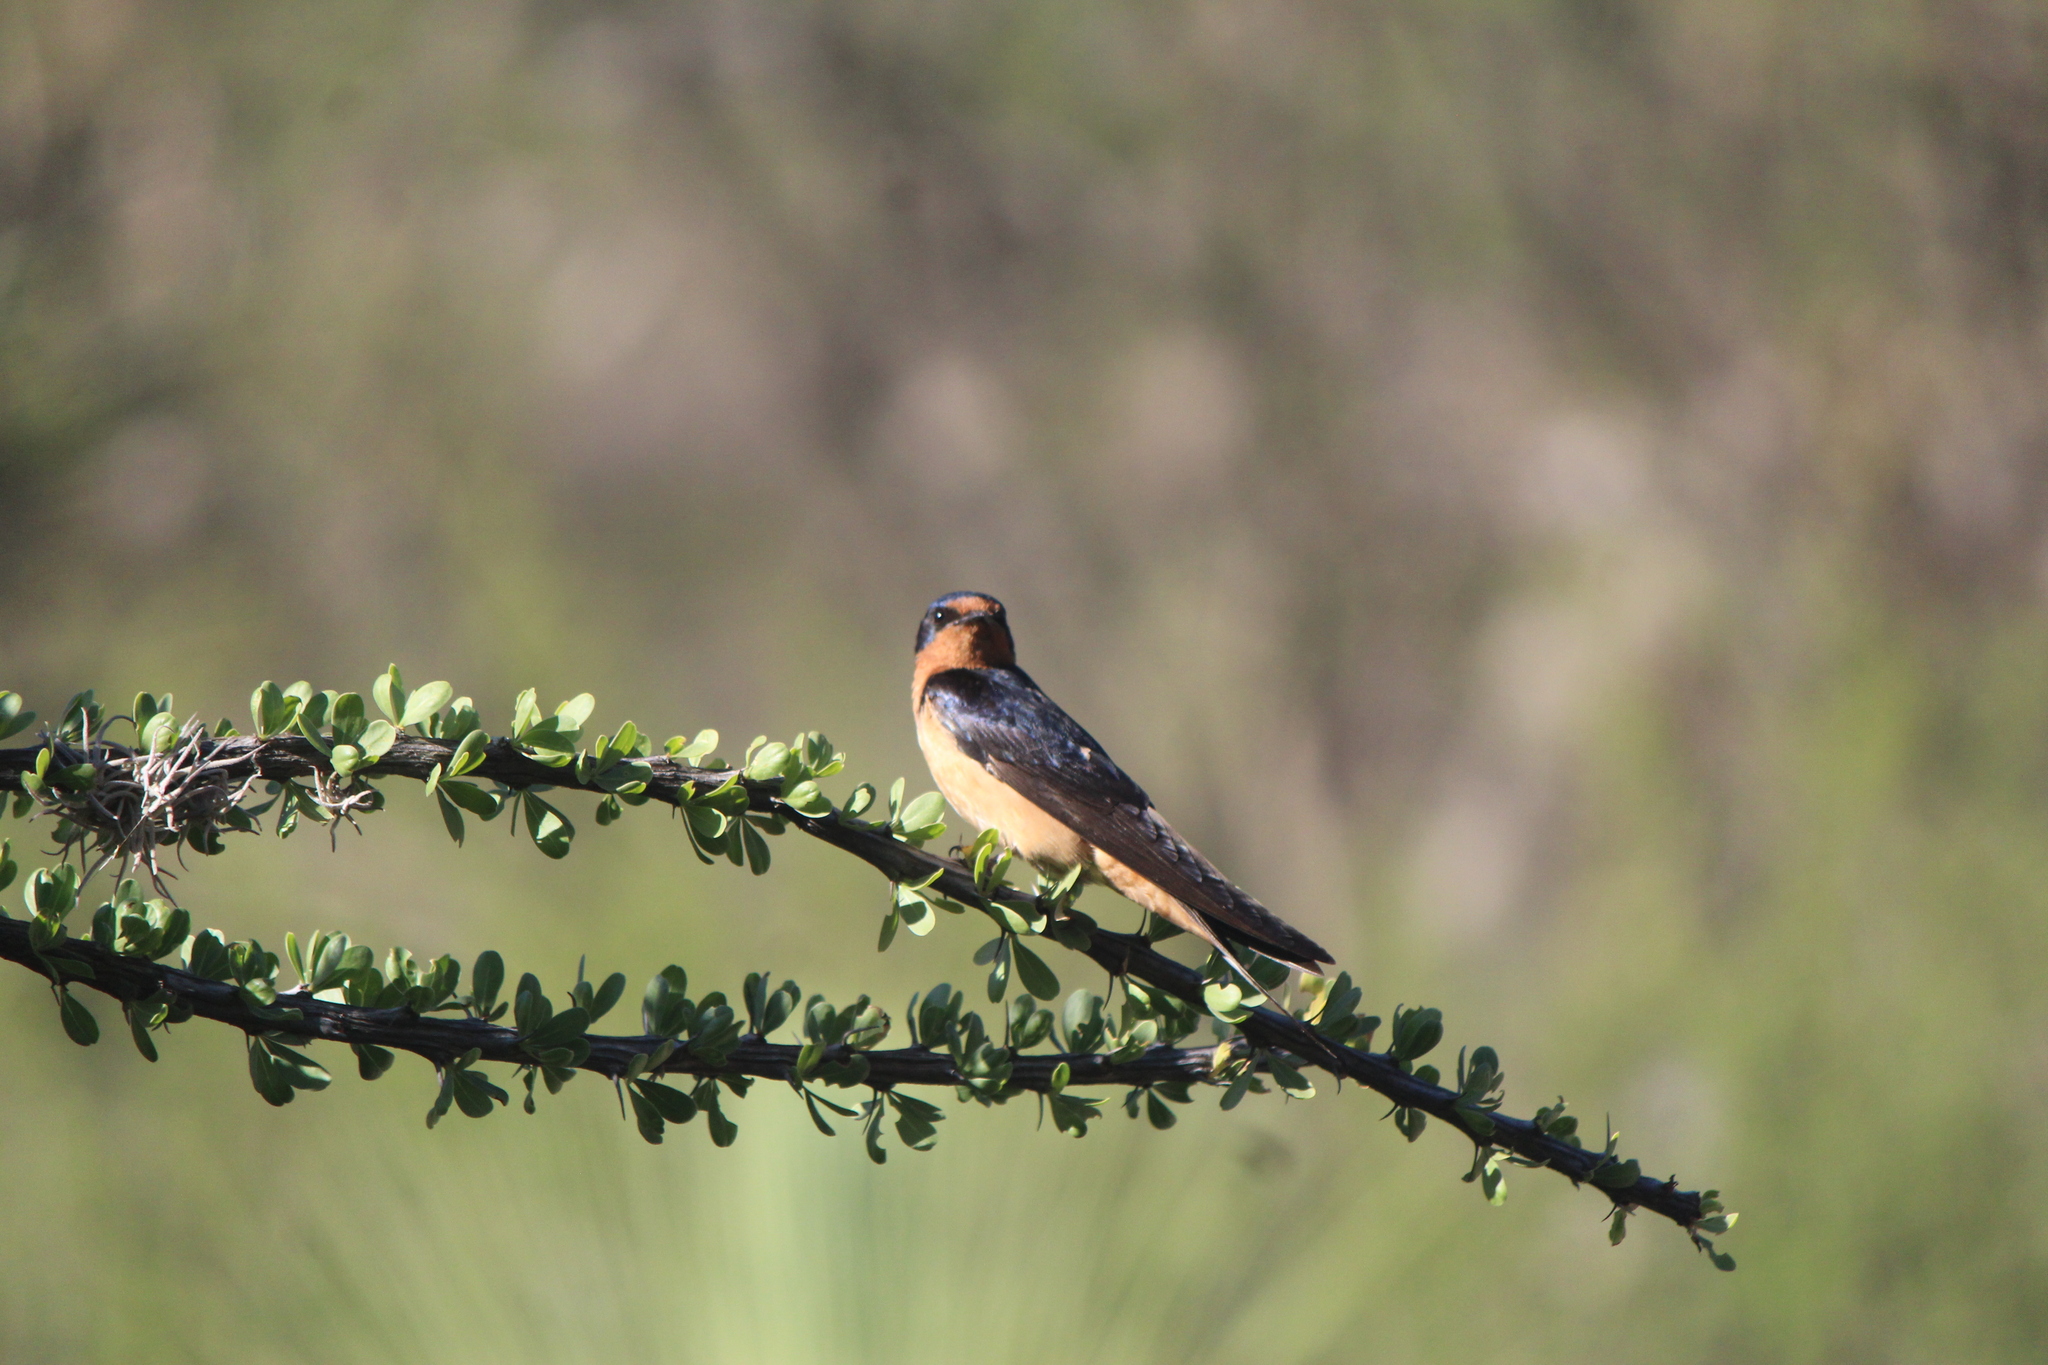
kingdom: Animalia
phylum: Chordata
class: Aves
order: Passeriformes
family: Hirundinidae
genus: Hirundo
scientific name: Hirundo rustica
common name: Barn swallow
